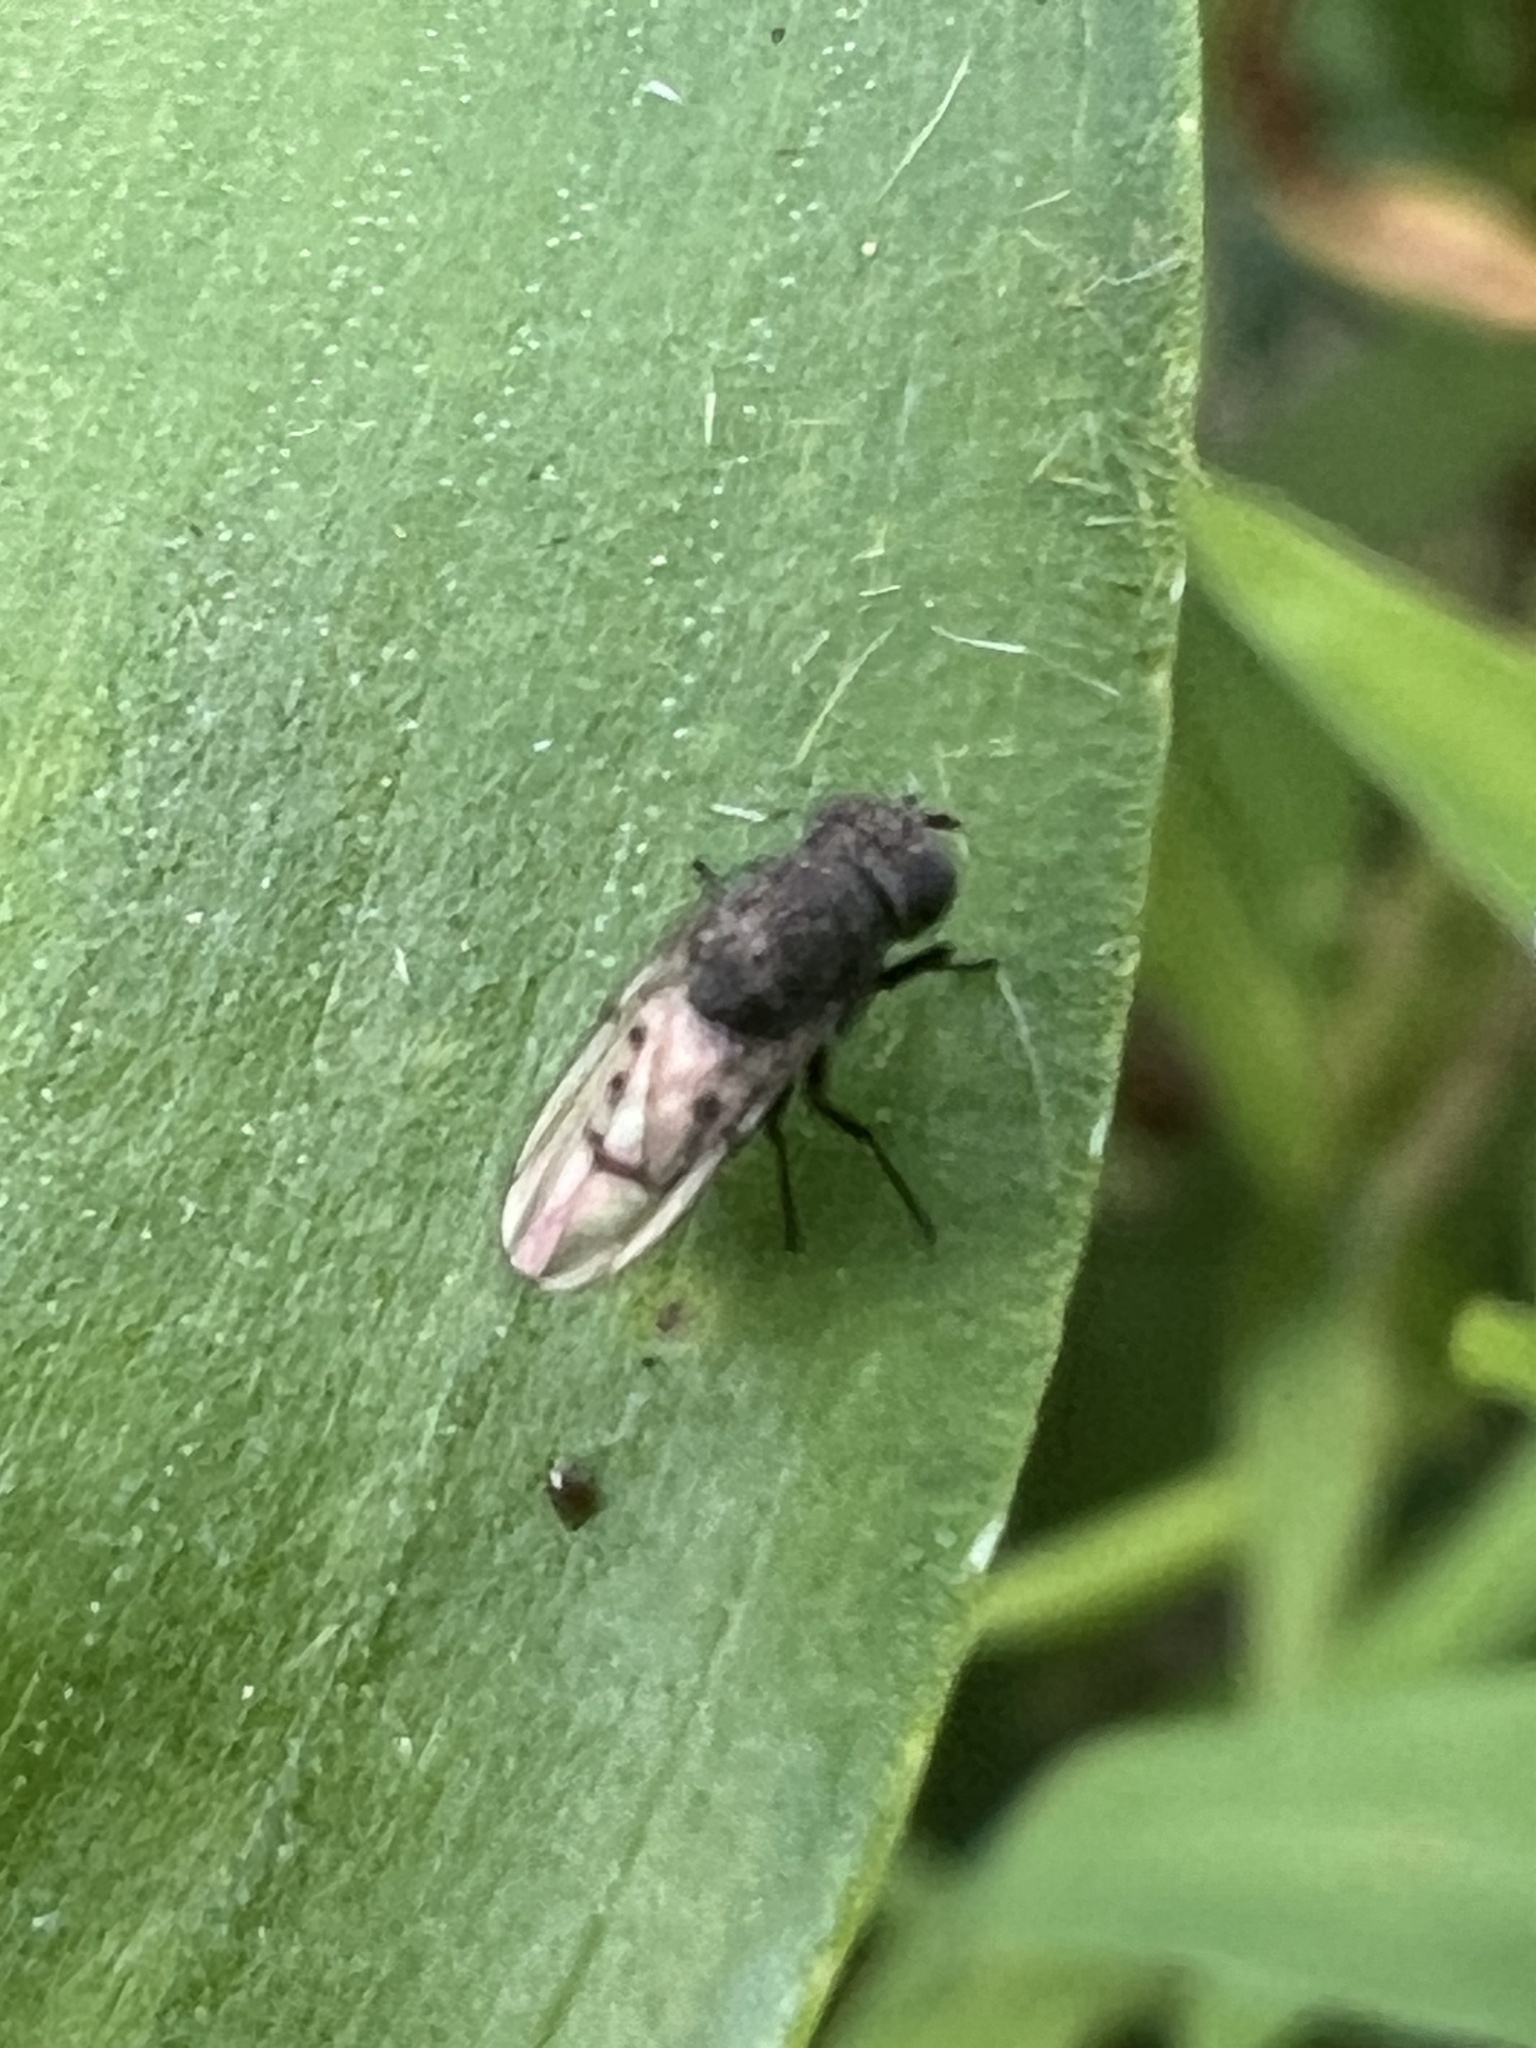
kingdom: Animalia
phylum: Arthropoda
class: Insecta
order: Diptera
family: Ephydridae
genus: Paralimna
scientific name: Paralimna punctipennis
